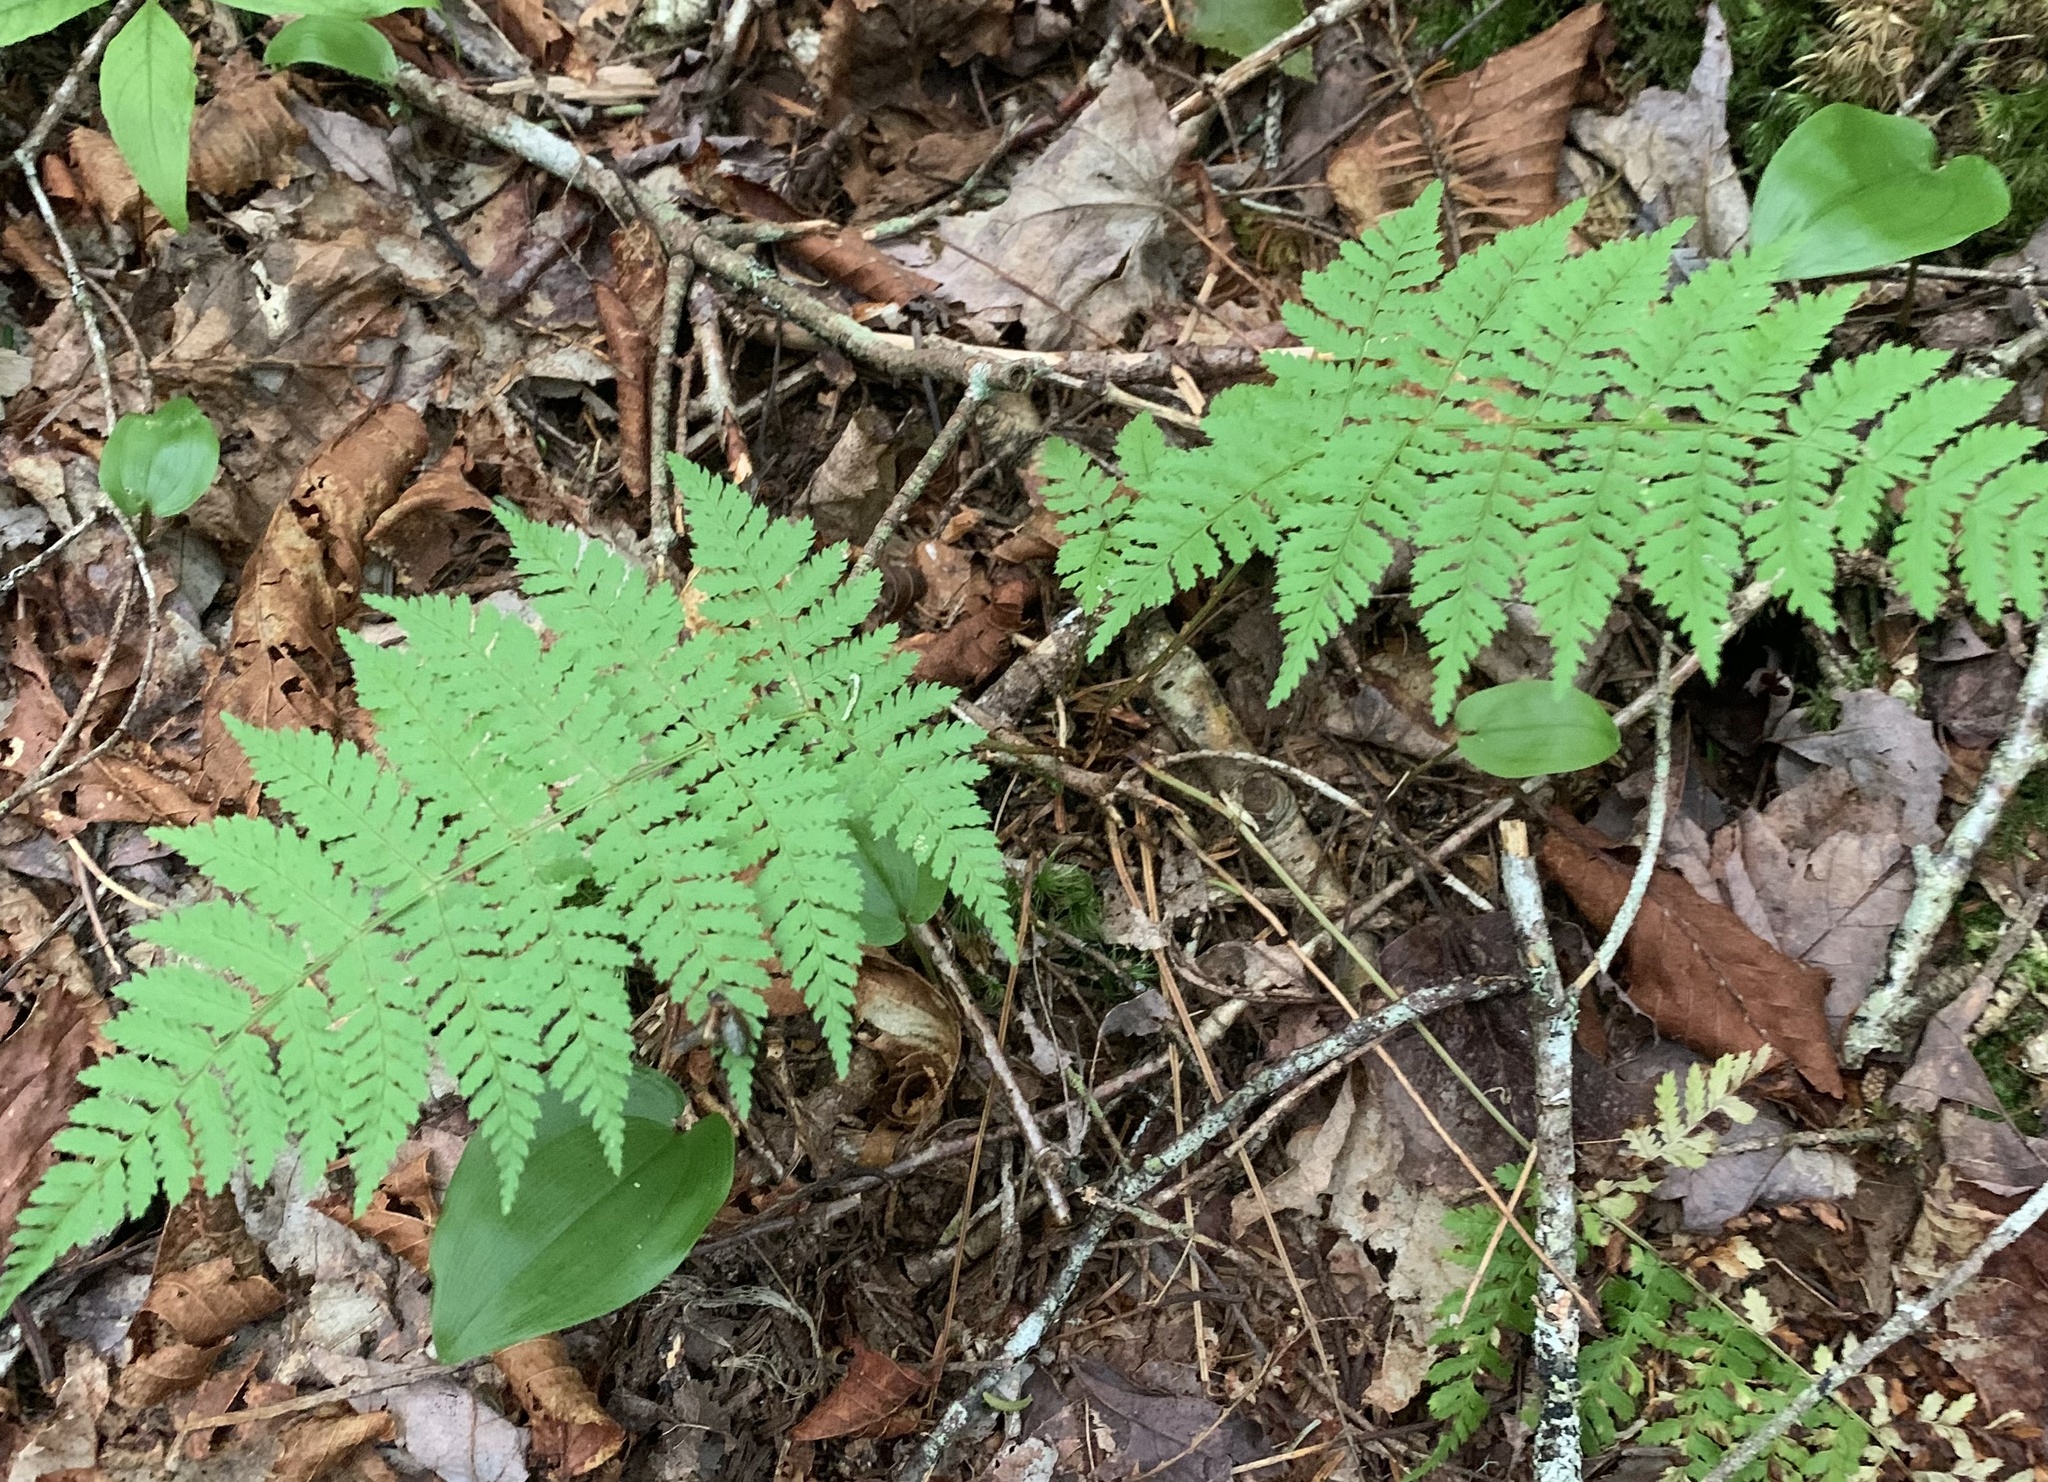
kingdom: Plantae
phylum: Tracheophyta
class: Polypodiopsida
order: Polypodiales
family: Dryopteridaceae
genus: Dryopteris
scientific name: Dryopteris intermedia
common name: Evergreen wood fern
